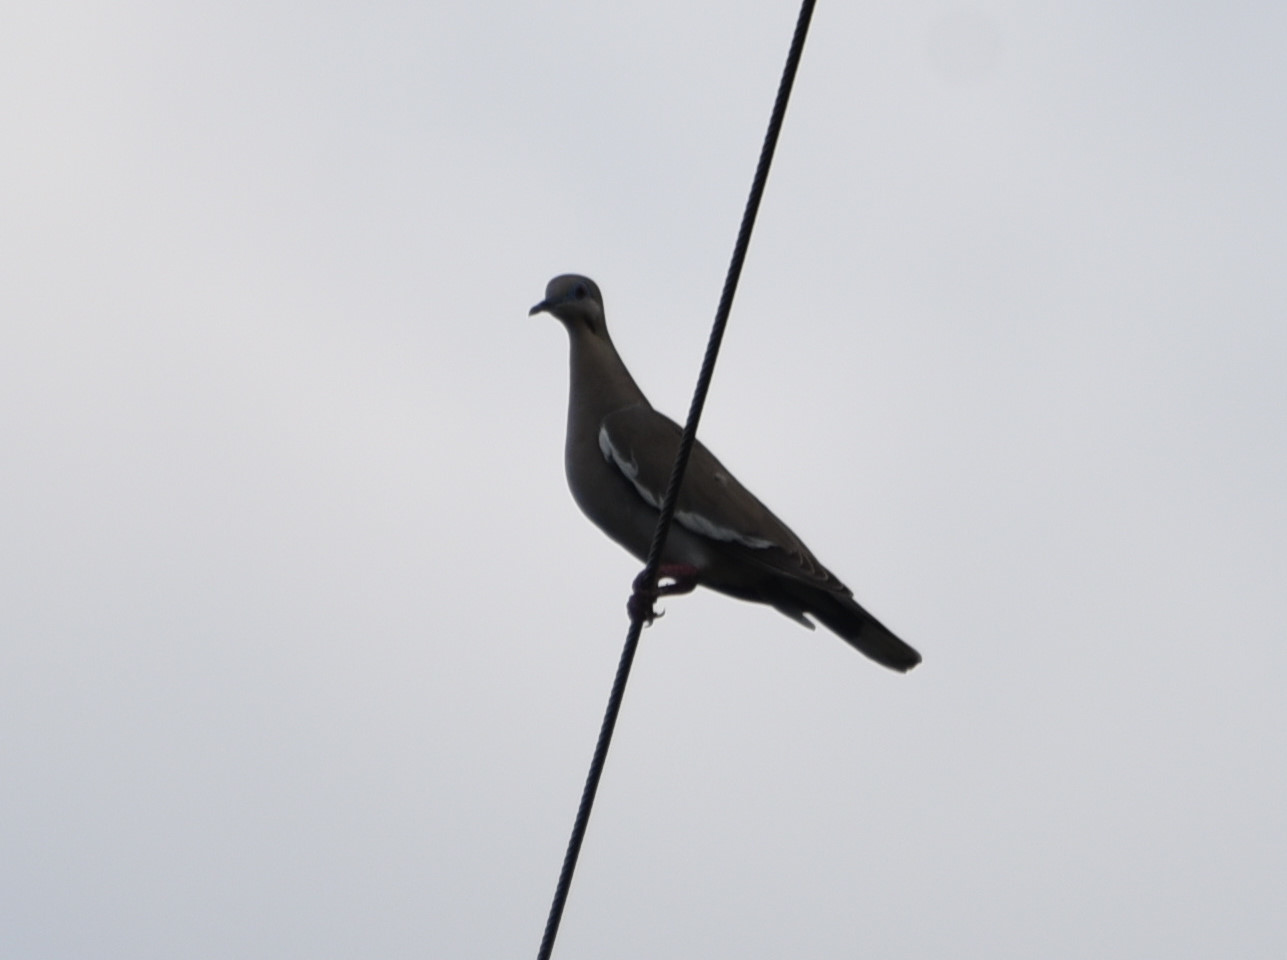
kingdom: Animalia
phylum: Chordata
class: Aves
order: Columbiformes
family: Columbidae
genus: Zenaida
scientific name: Zenaida asiatica
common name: White-winged dove
